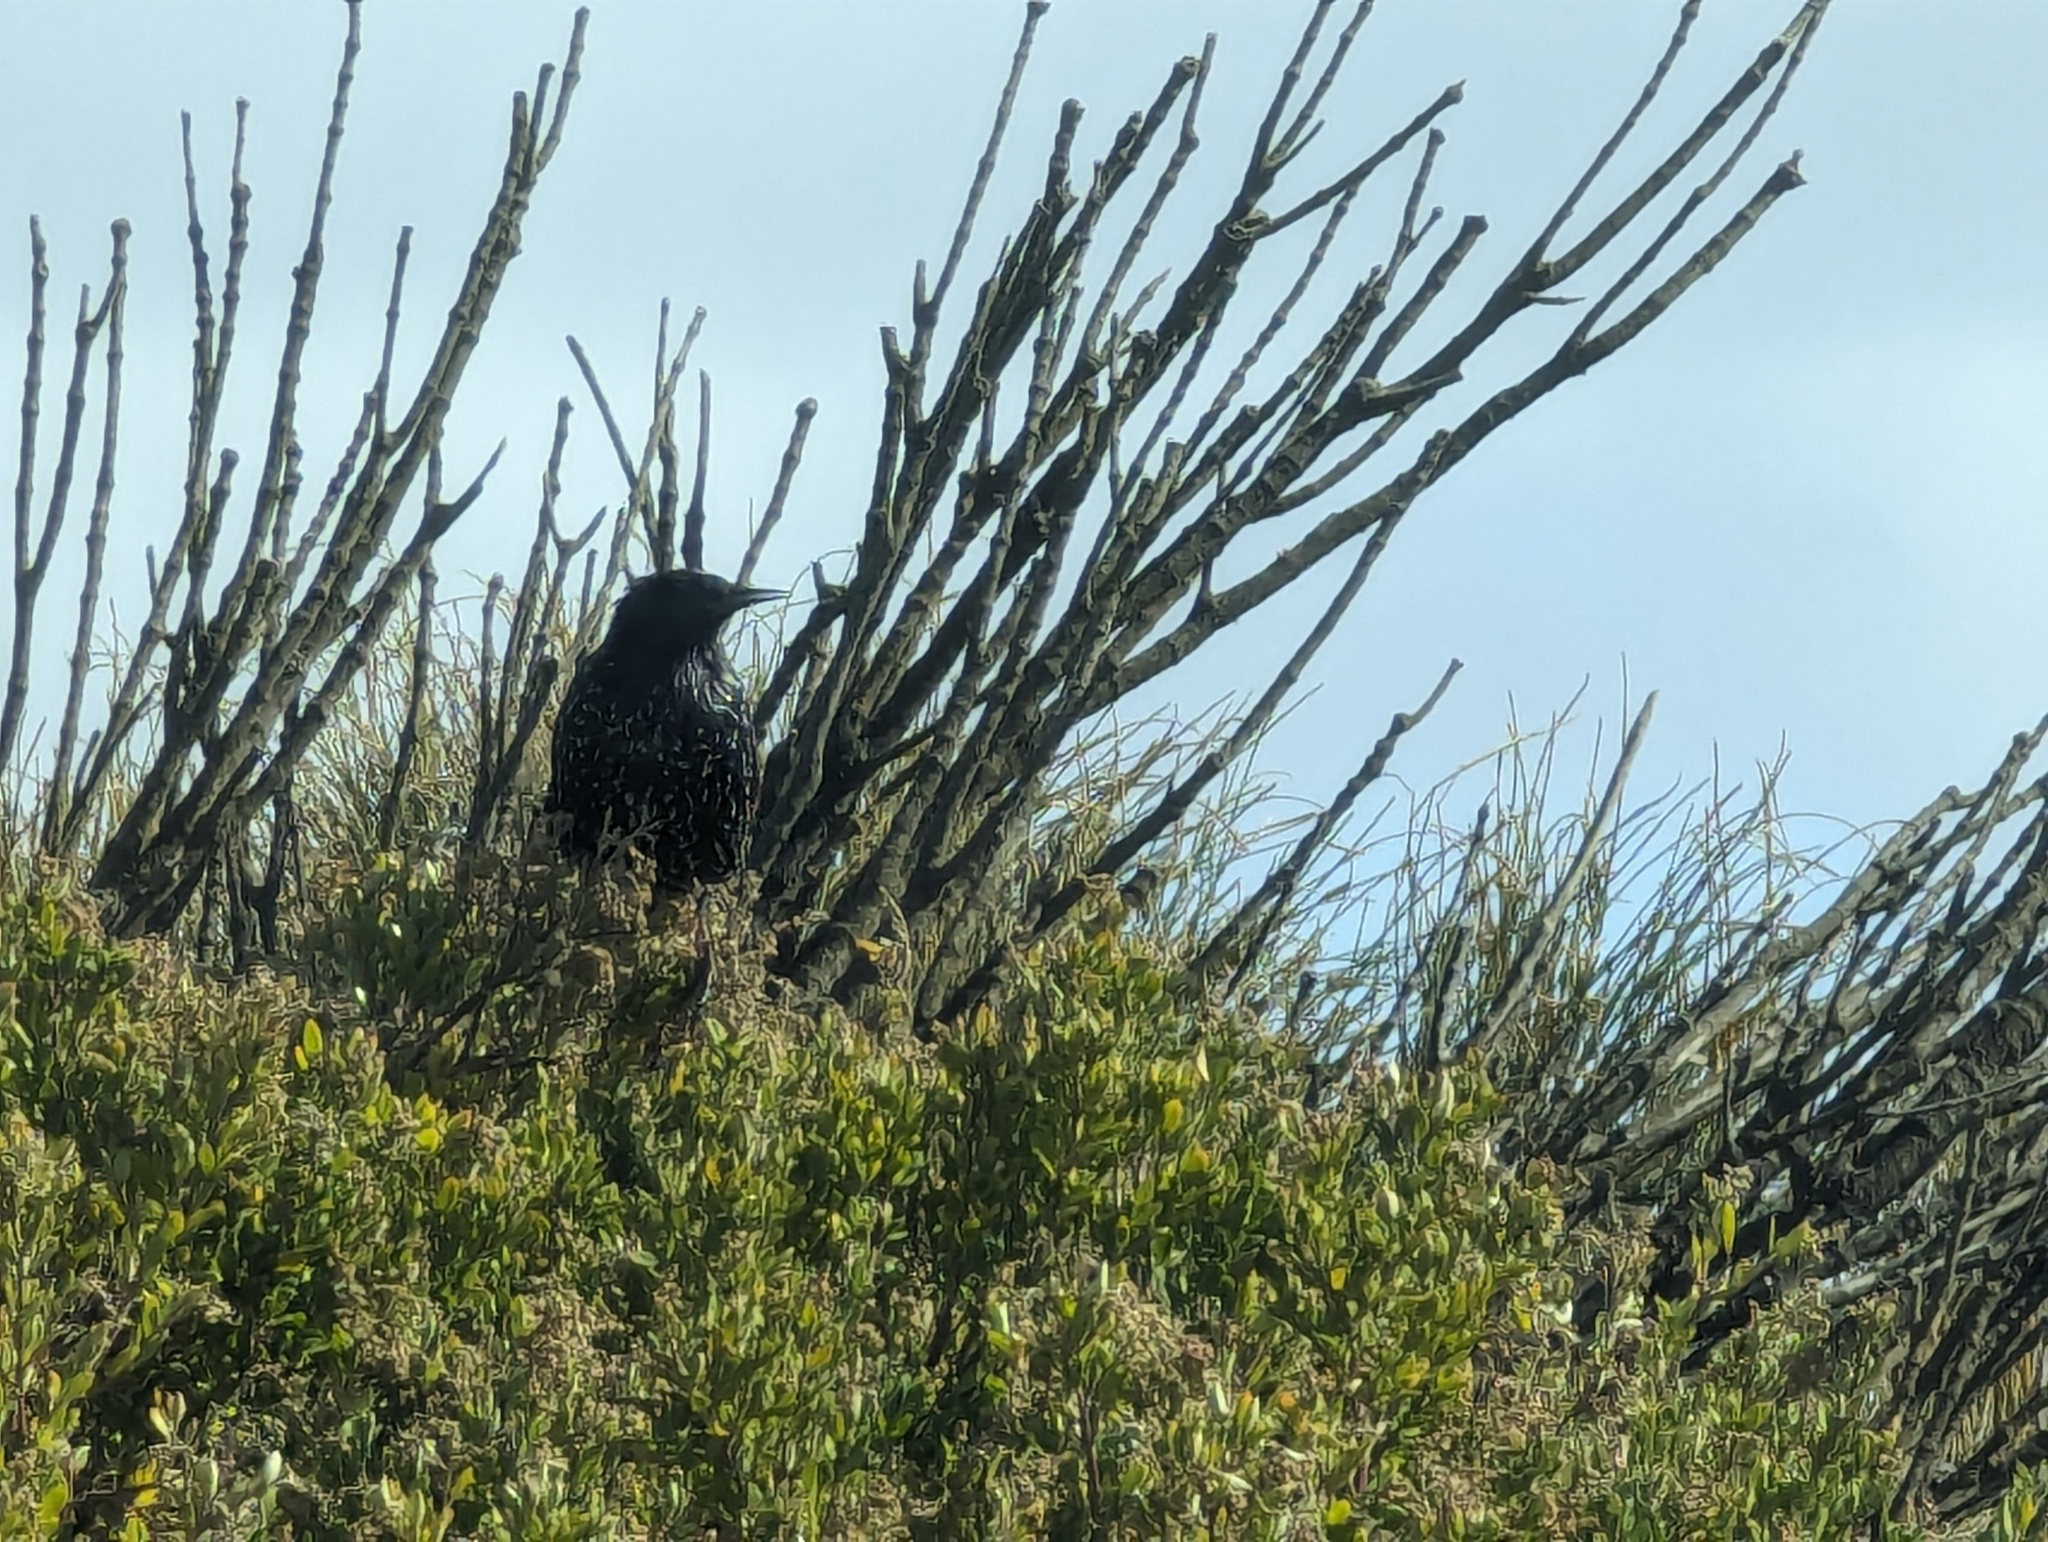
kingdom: Animalia
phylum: Chordata
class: Aves
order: Passeriformes
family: Sturnidae
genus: Sturnus
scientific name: Sturnus vulgaris
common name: Common starling
